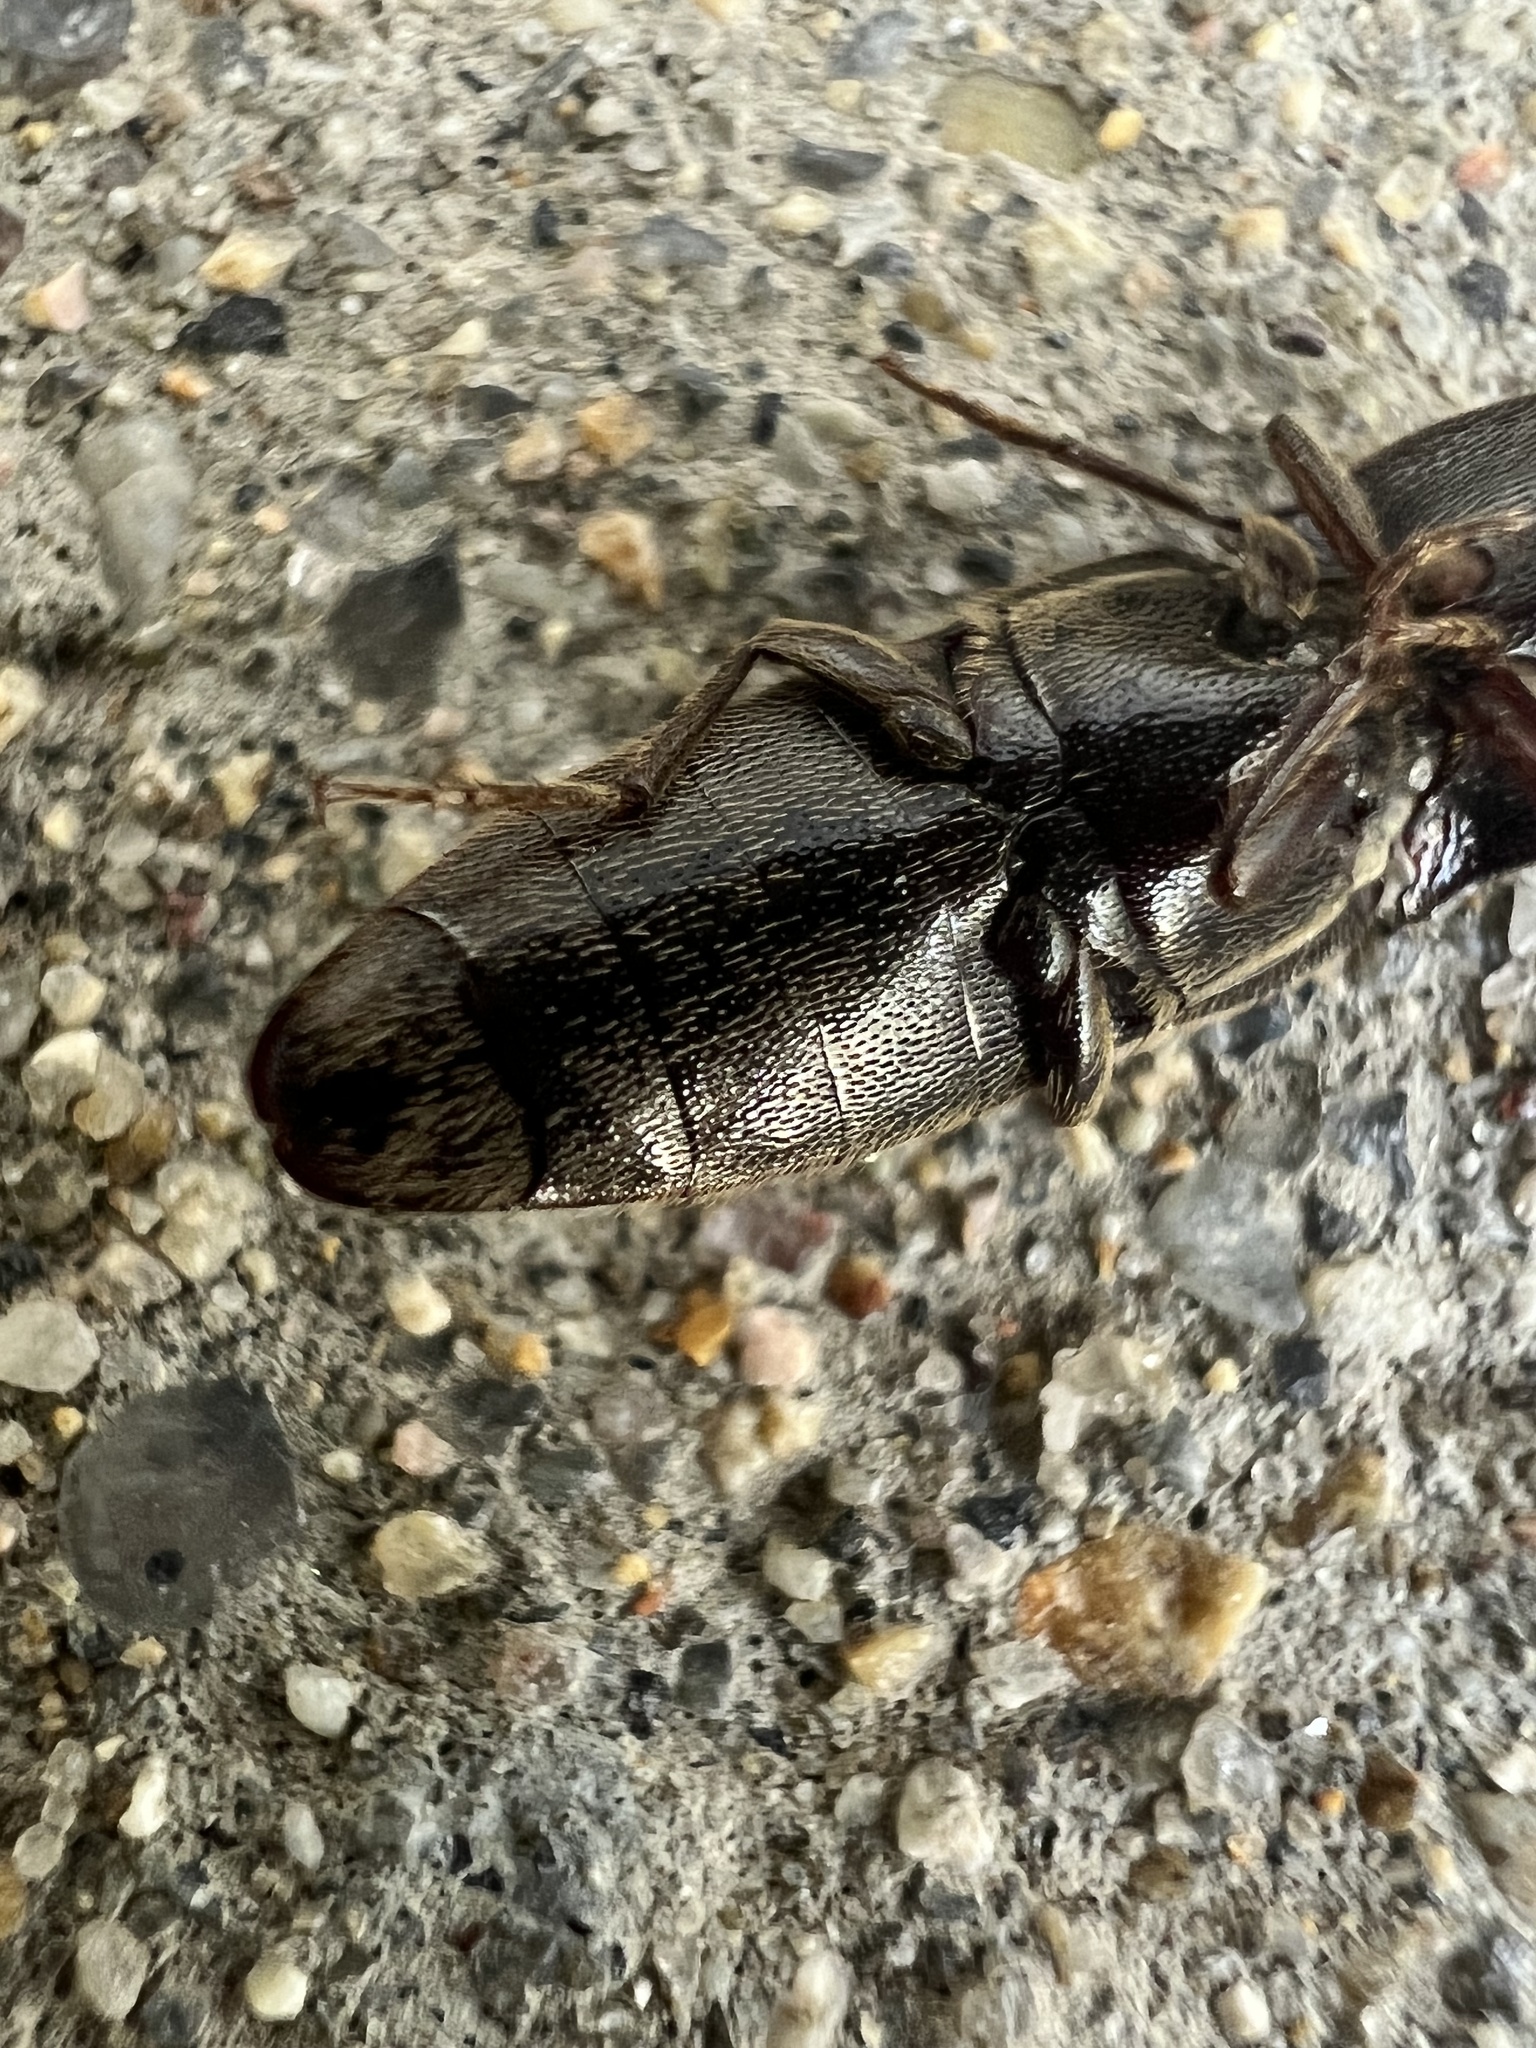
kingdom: Animalia
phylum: Arthropoda
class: Insecta
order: Coleoptera
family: Elateridae
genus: Melanotus
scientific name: Melanotus similis
